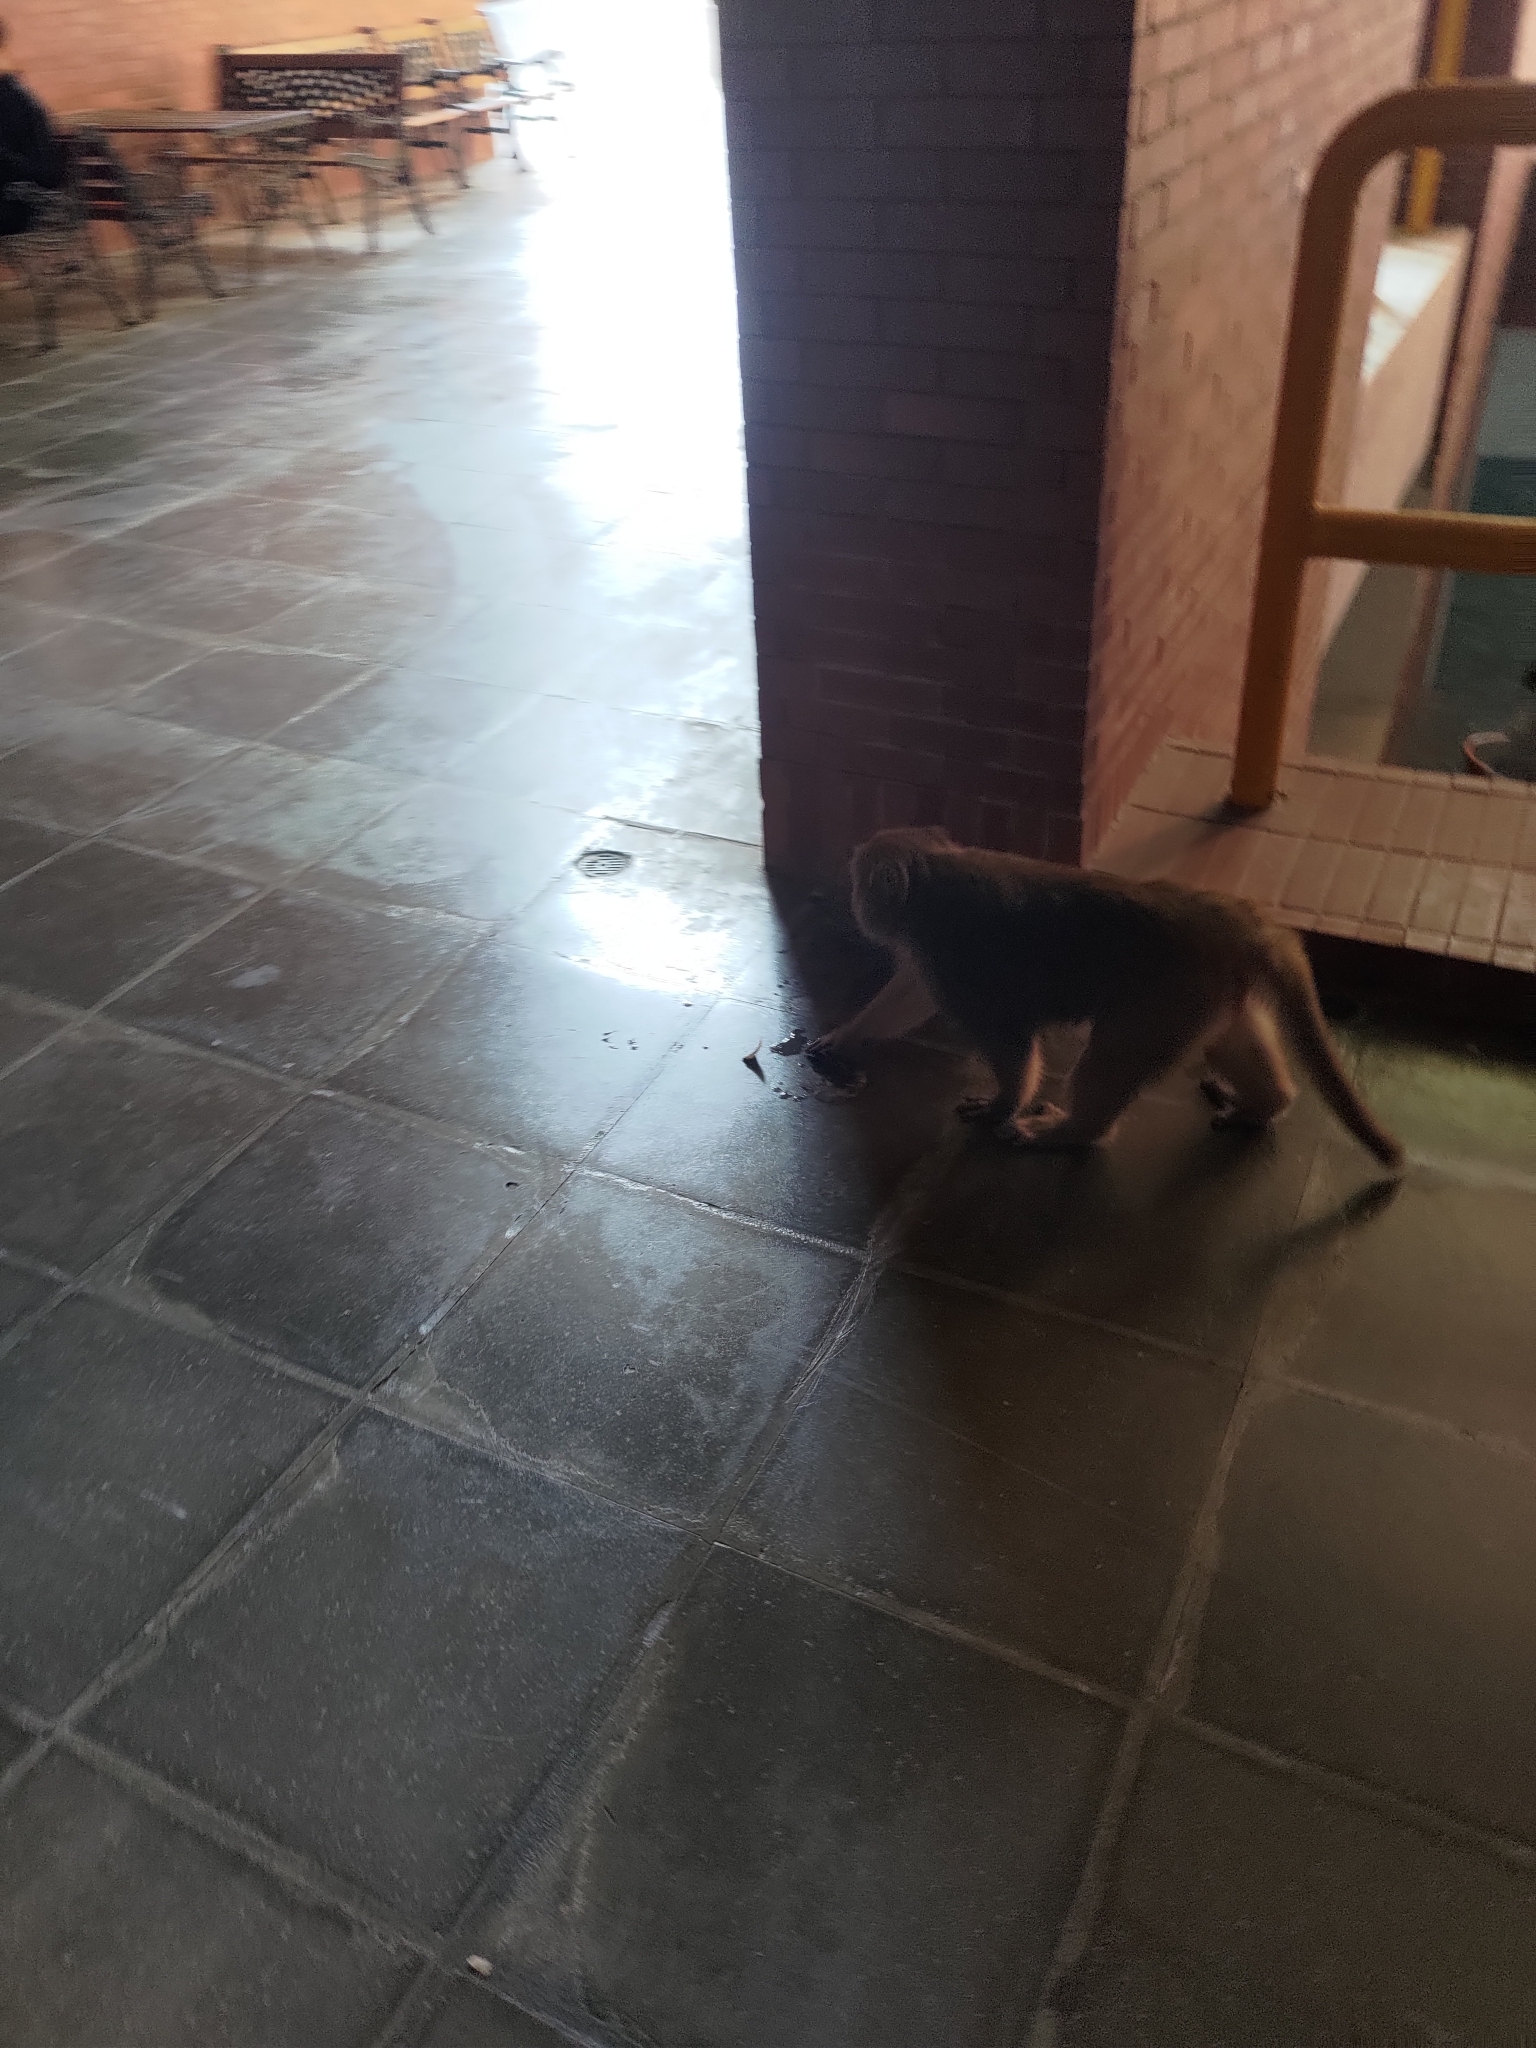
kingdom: Animalia
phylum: Chordata
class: Mammalia
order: Primates
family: Cercopithecidae
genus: Macaca
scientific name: Macaca cyclopis
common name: Formosan rock macaque
